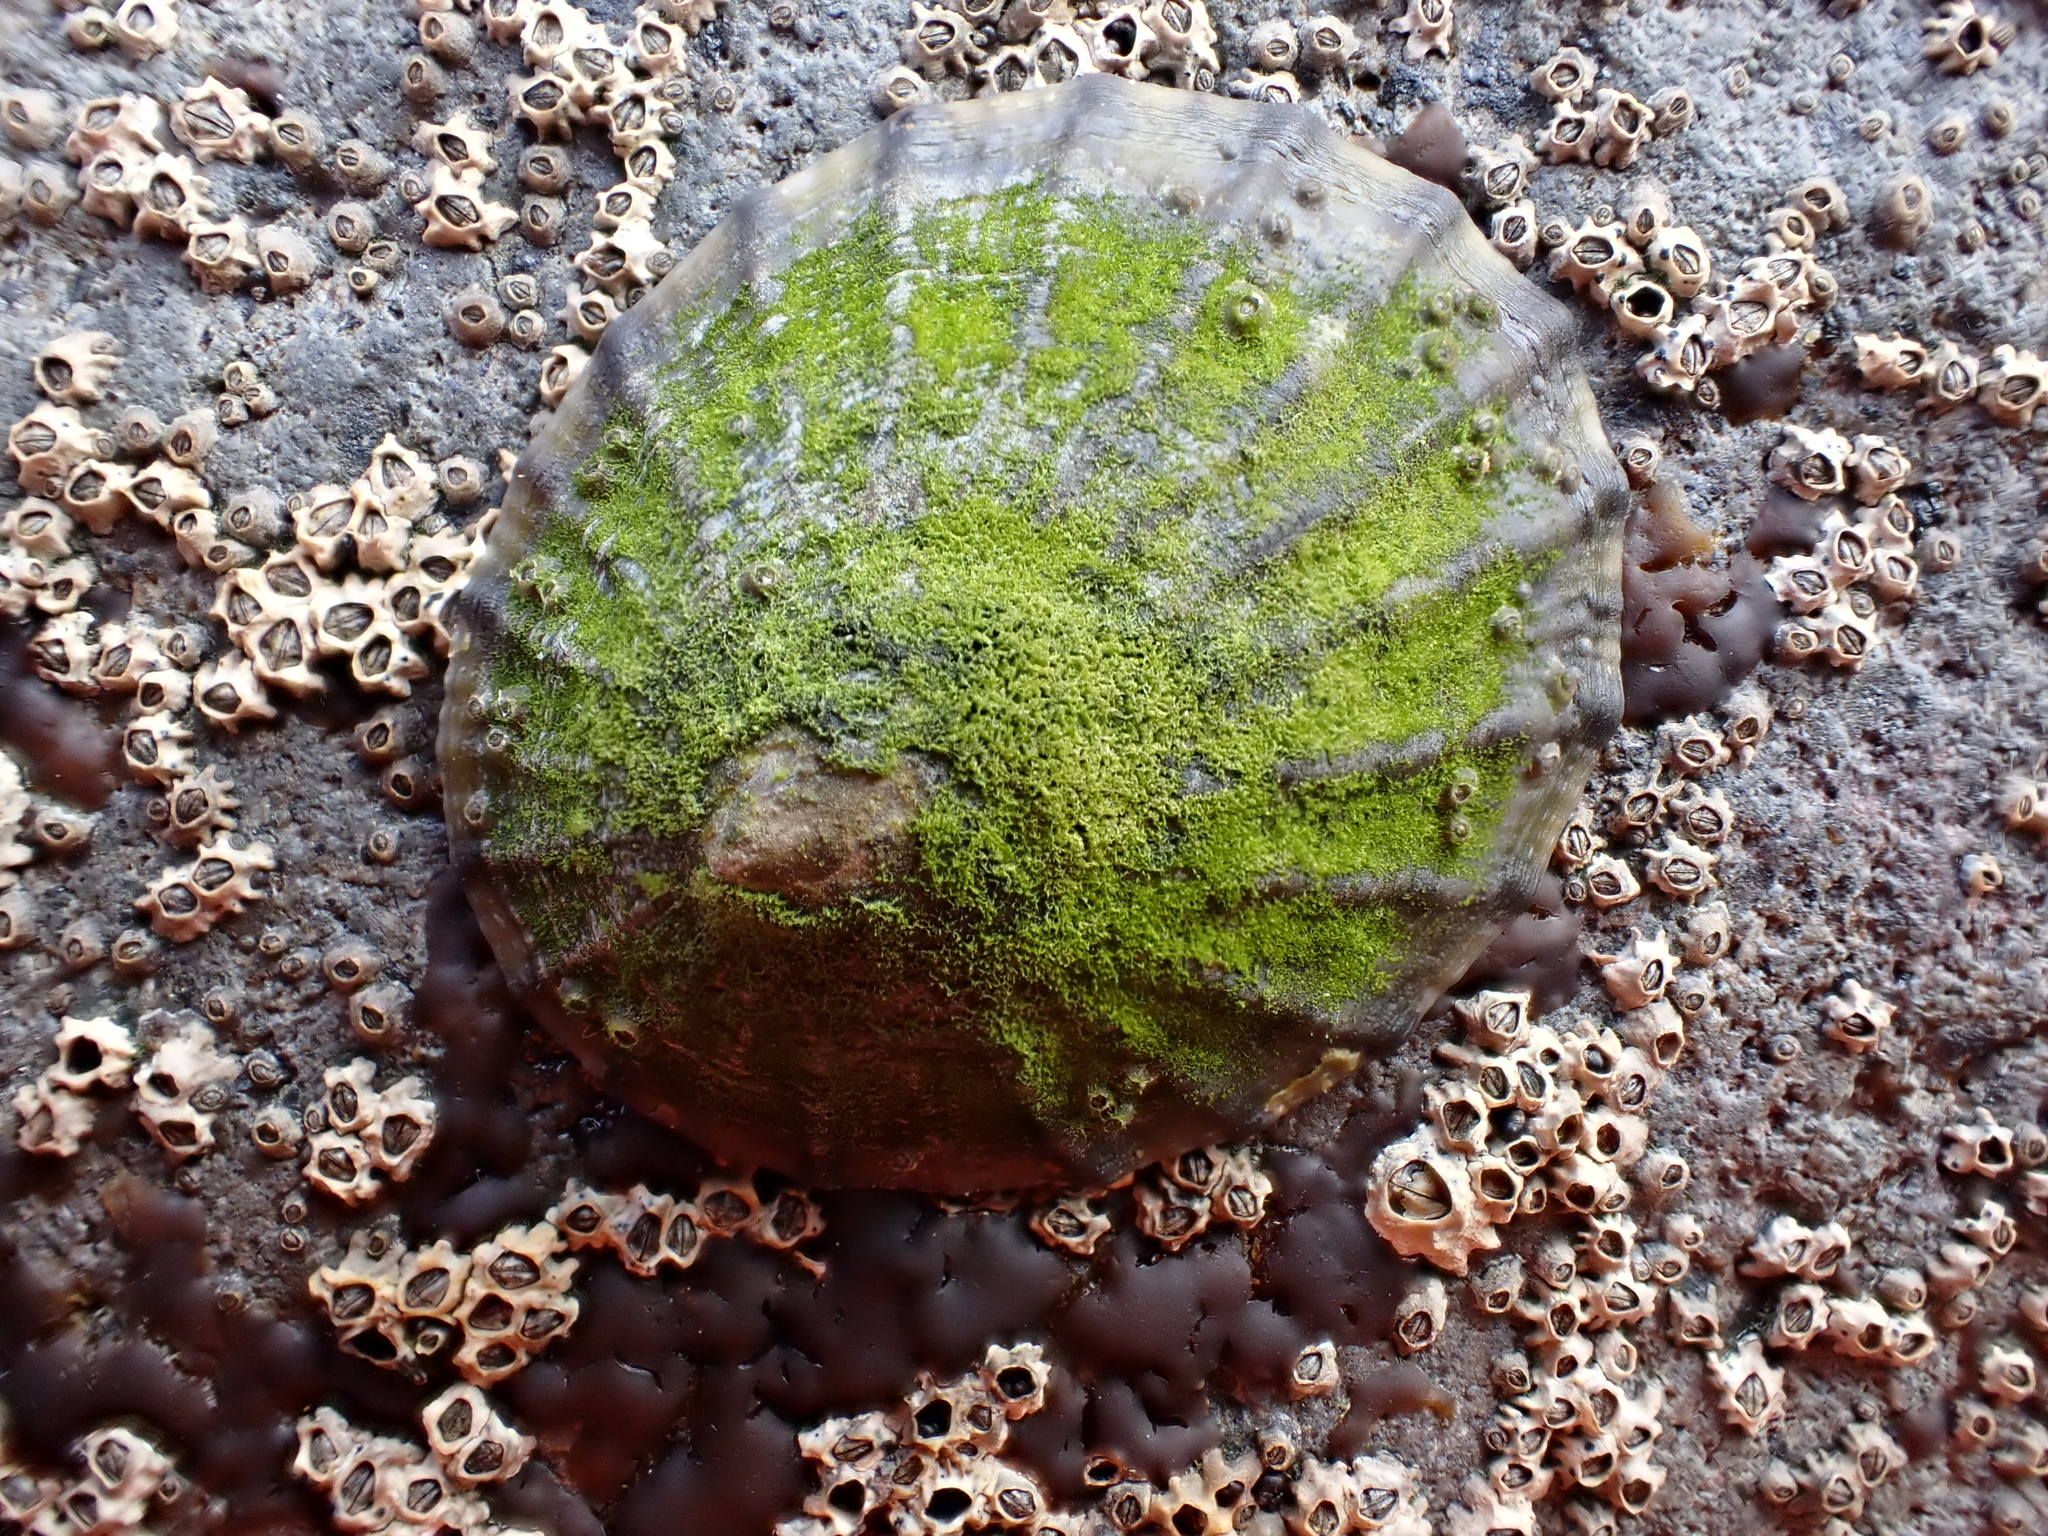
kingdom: Animalia
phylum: Mollusca
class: Gastropoda
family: Nacellidae
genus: Cellana
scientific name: Cellana radians
